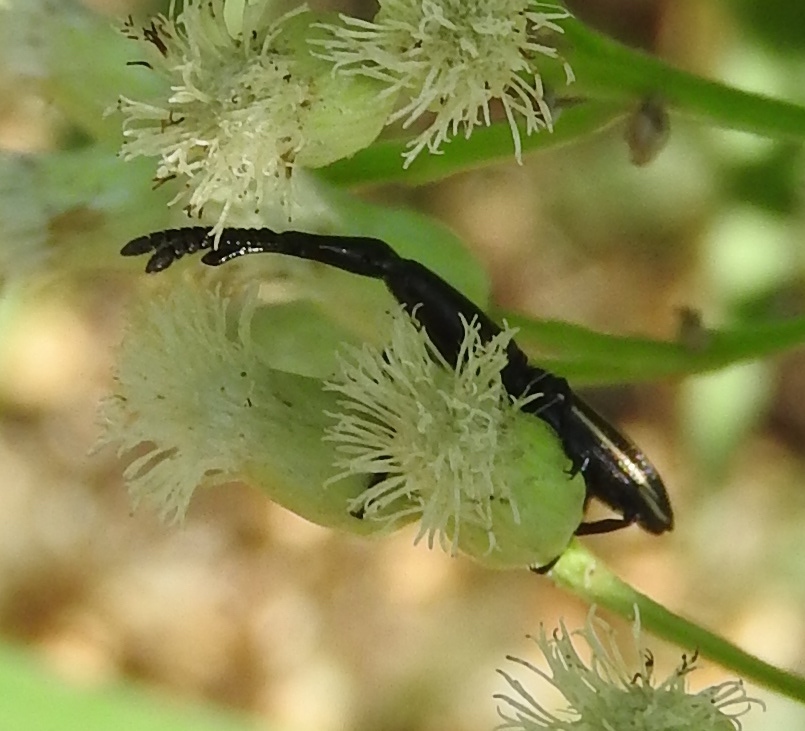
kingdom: Animalia
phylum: Arthropoda
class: Insecta
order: Coleoptera
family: Brentidae
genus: Brentus
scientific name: Brentus
